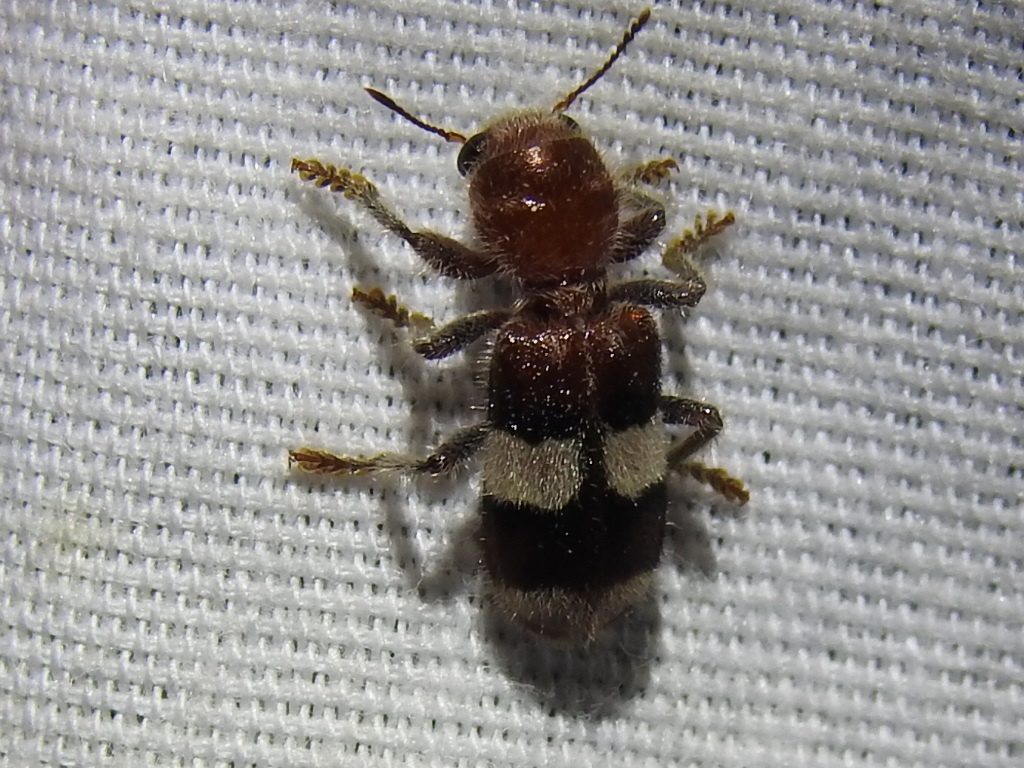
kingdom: Animalia
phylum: Arthropoda
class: Insecta
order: Coleoptera
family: Cleridae
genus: Enoclerus
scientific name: Enoclerus quadrisignatus
